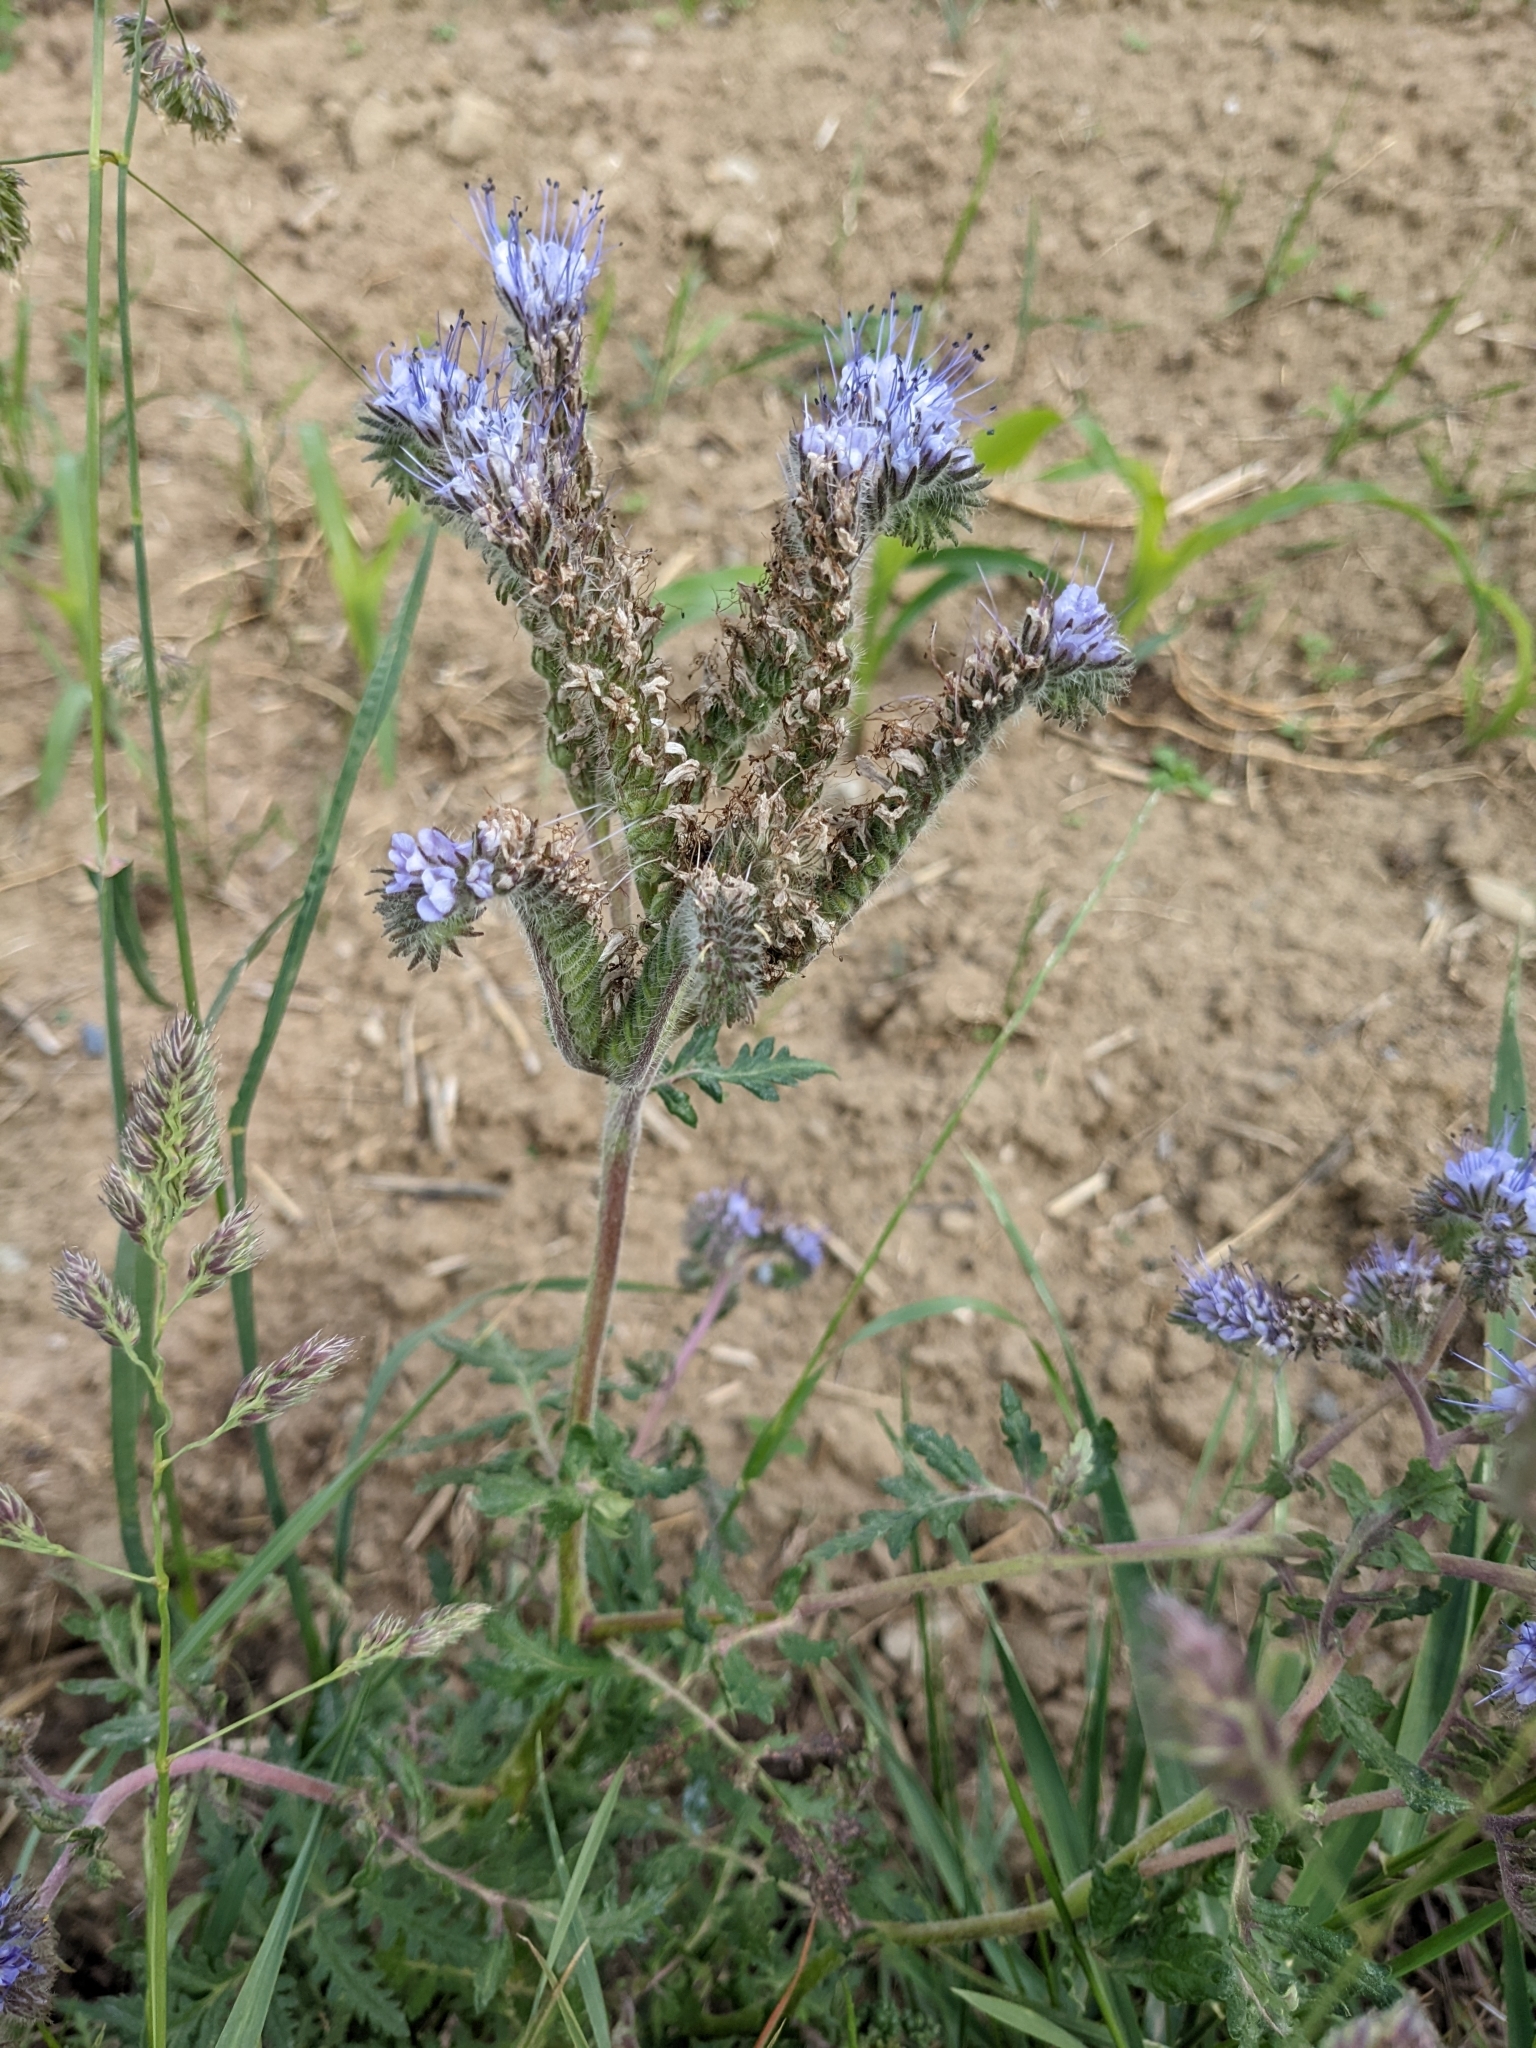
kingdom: Plantae
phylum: Tracheophyta
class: Magnoliopsida
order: Boraginales
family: Hydrophyllaceae
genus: Phacelia
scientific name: Phacelia tanacetifolia
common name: Phacelia
